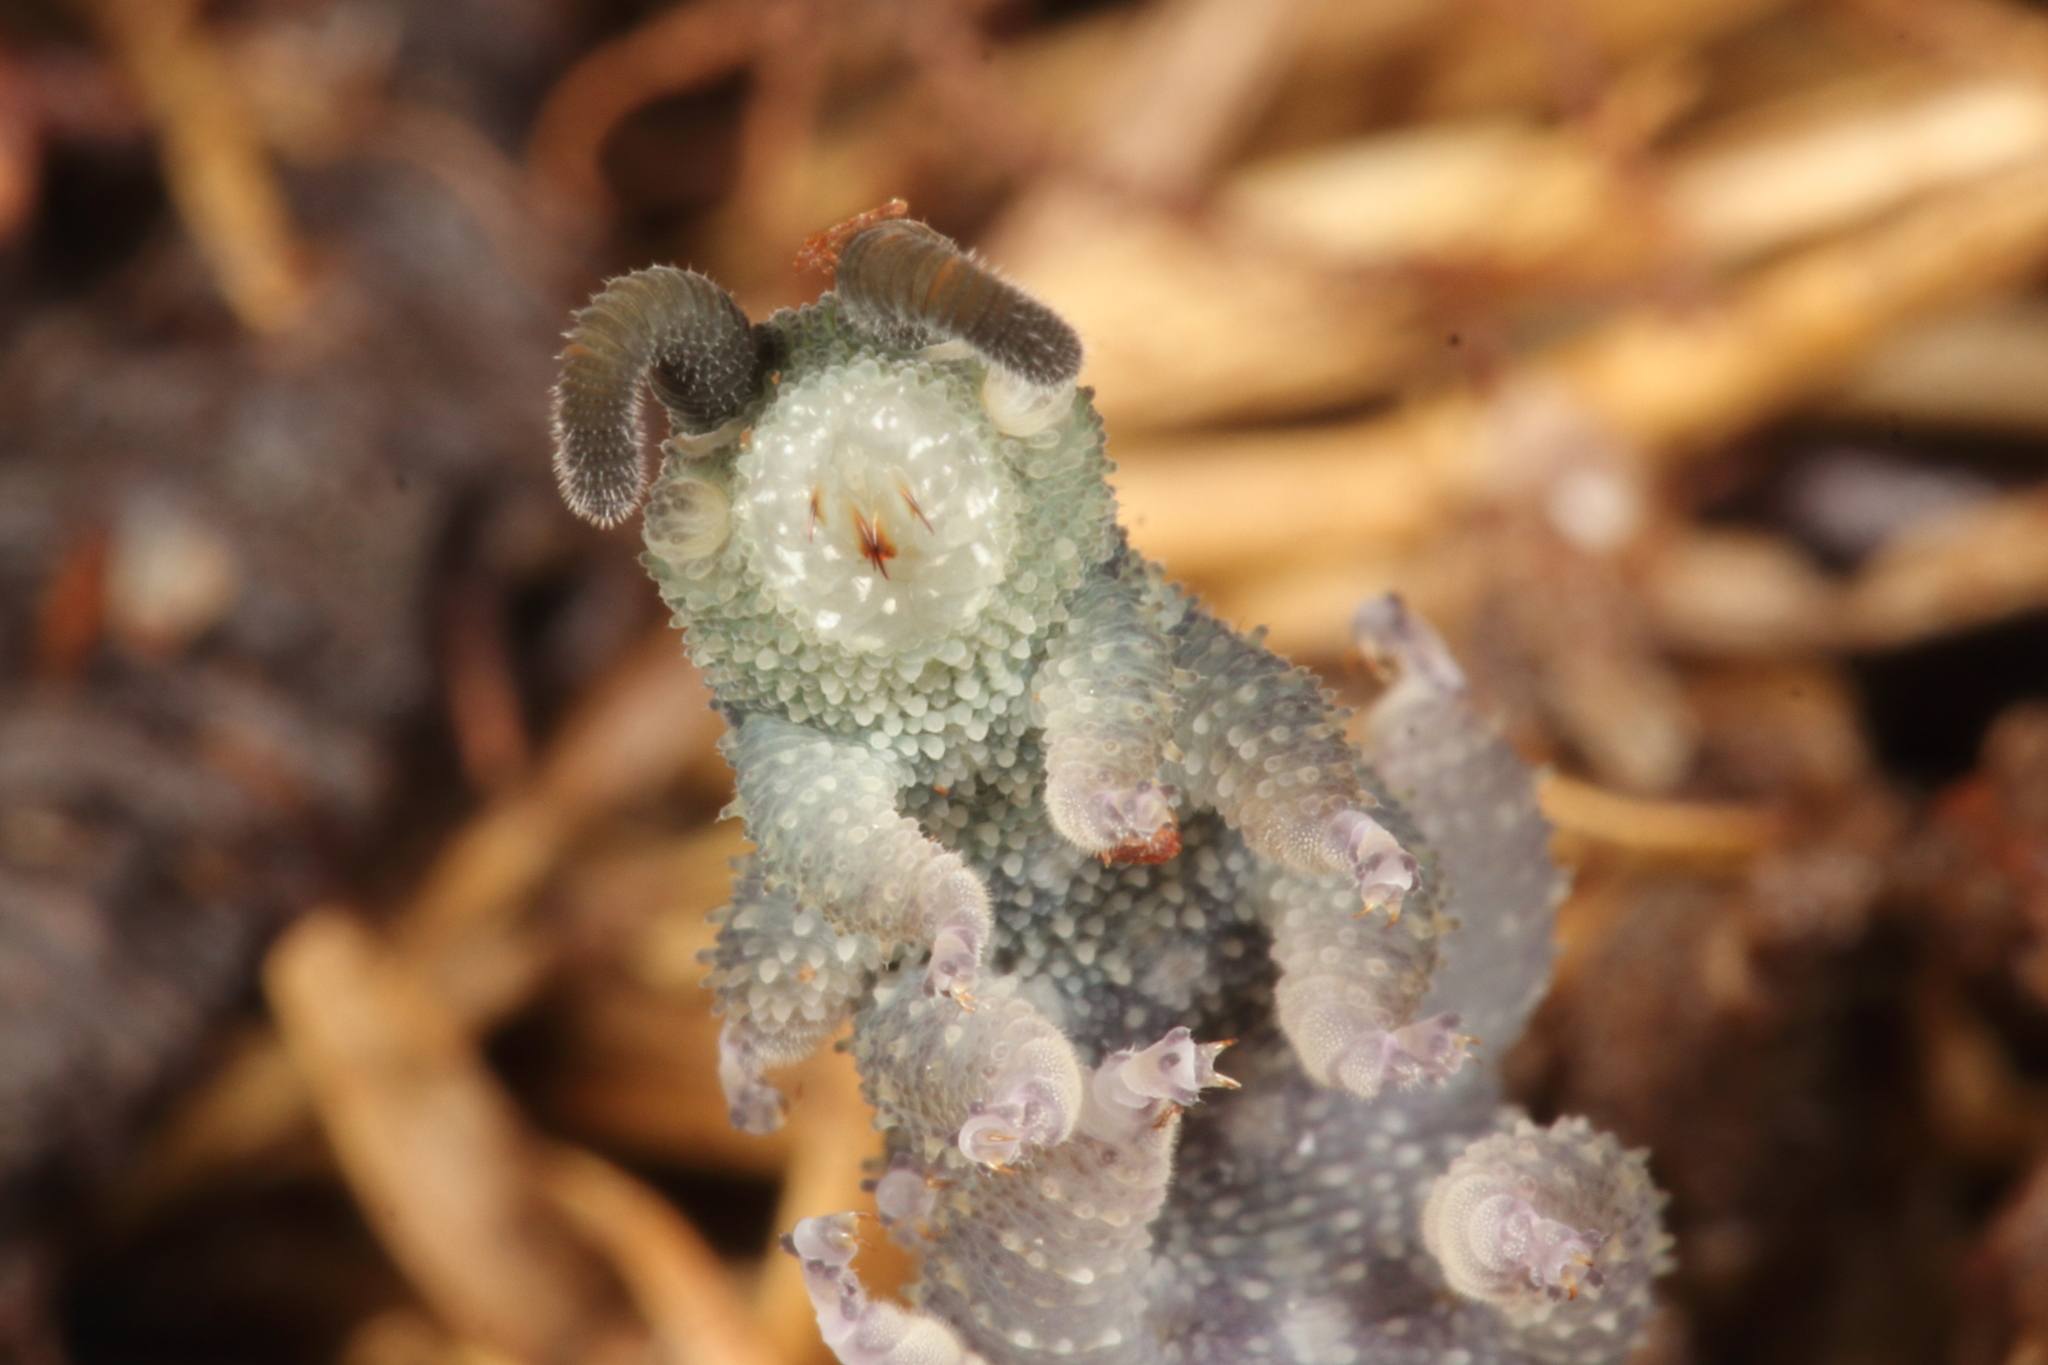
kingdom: Animalia
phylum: Onychophora
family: Peripatopsidae
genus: Ooperipatellus
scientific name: Ooperipatellus viridimaculatus
